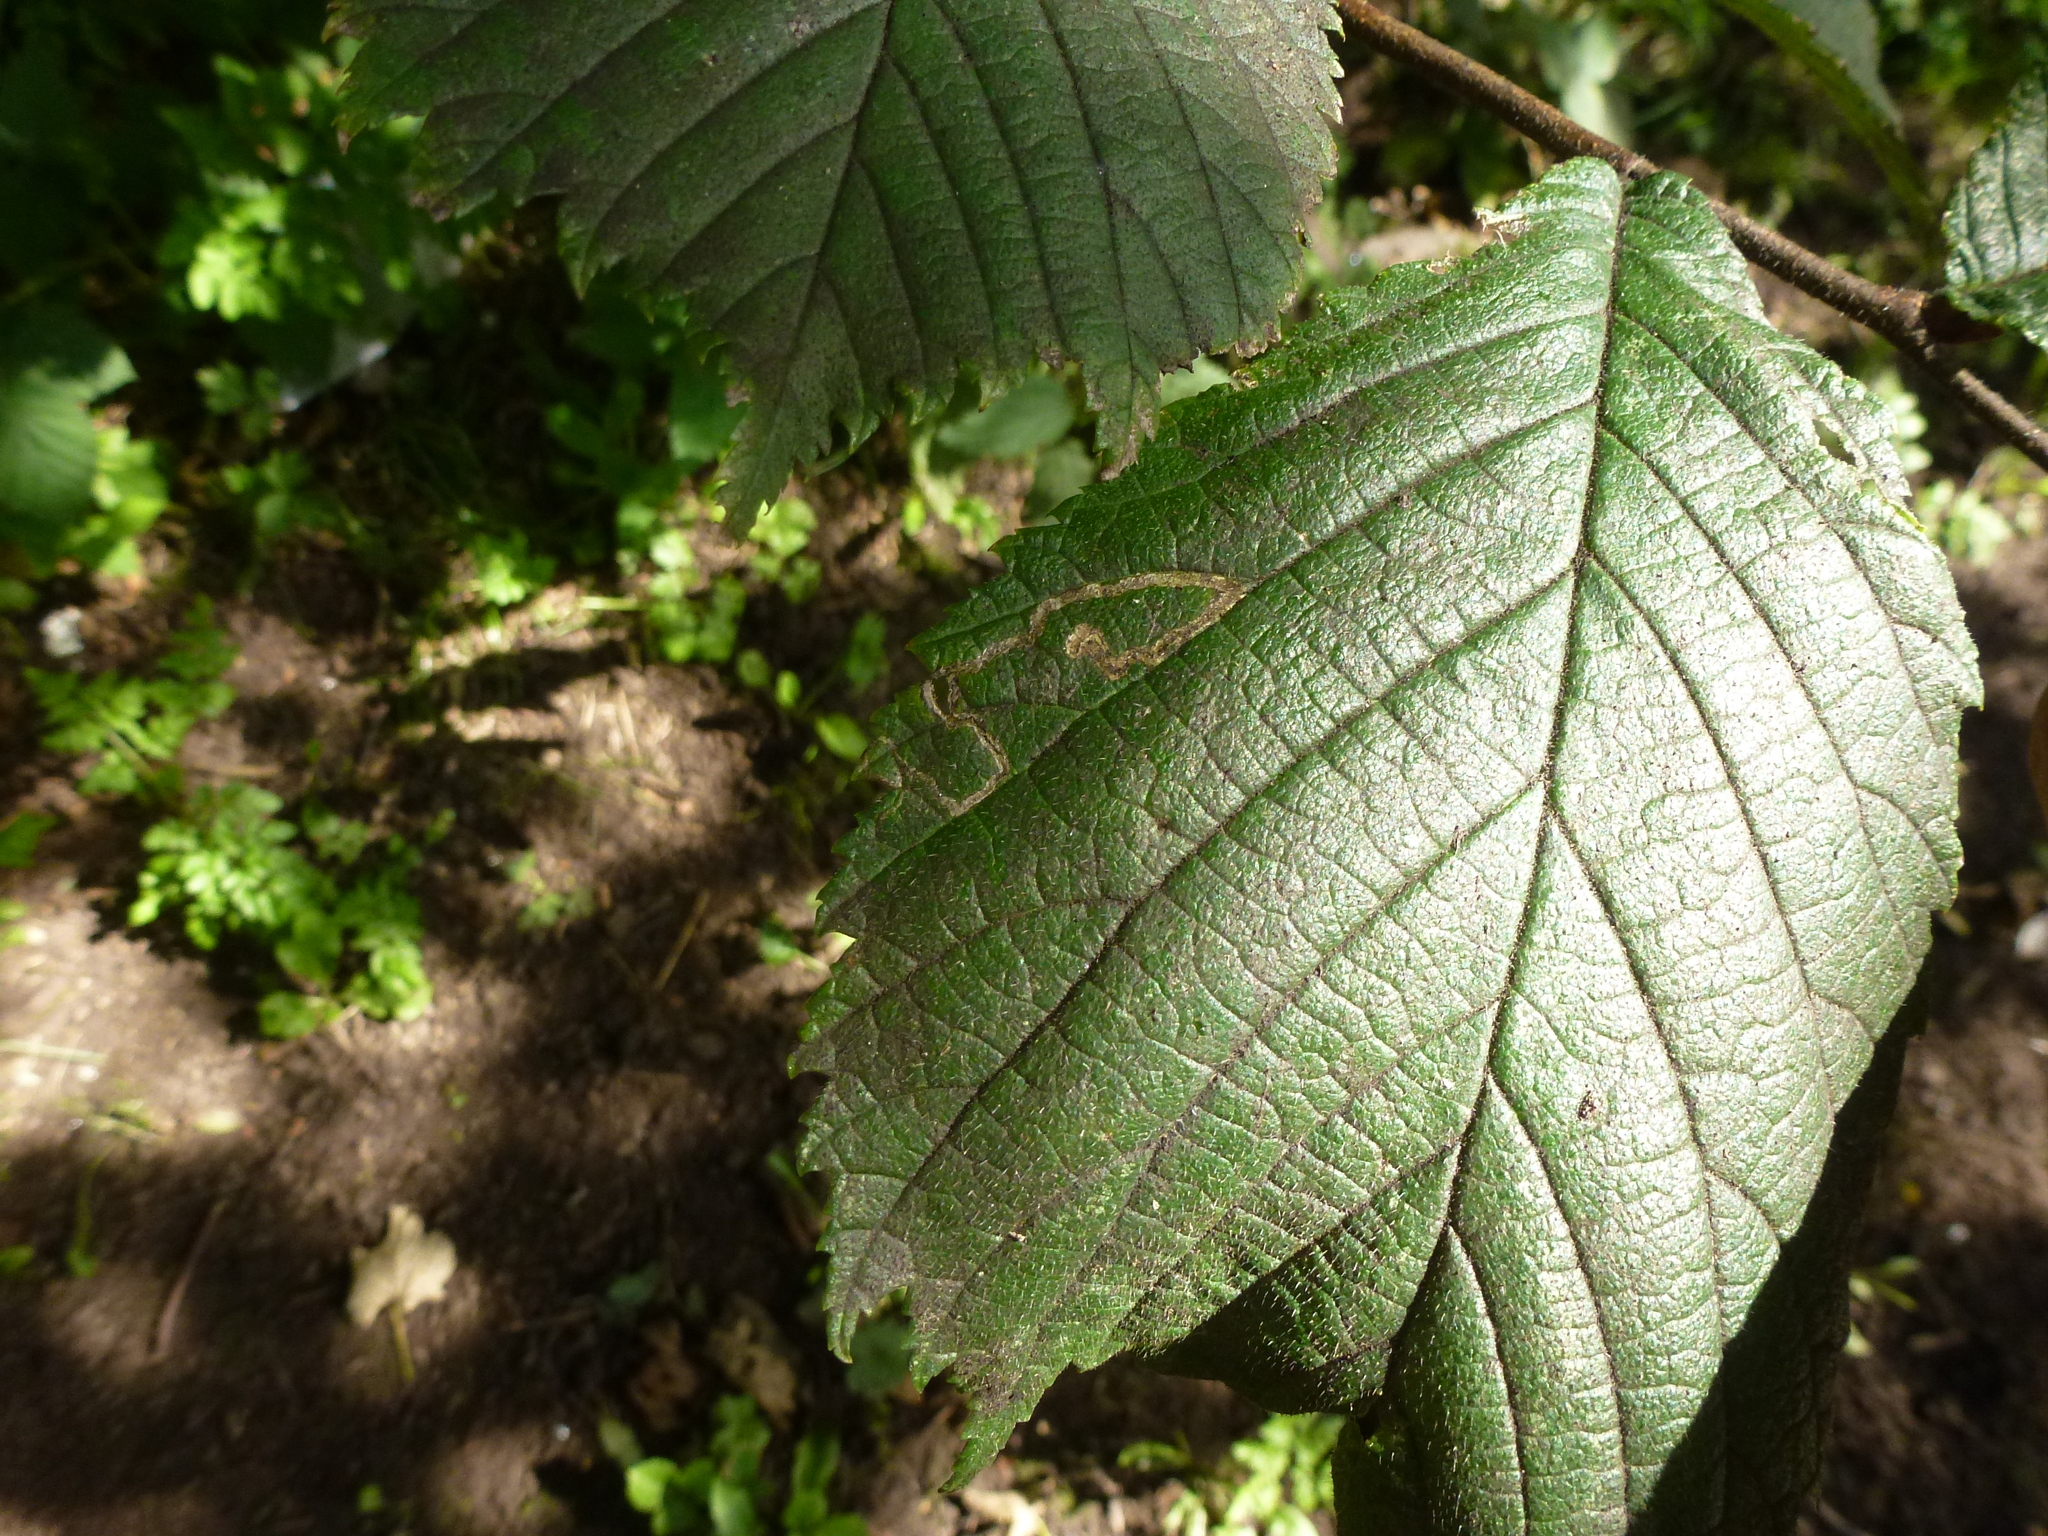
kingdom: Animalia
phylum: Arthropoda
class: Insecta
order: Lepidoptera
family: Nepticulidae
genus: Stigmella
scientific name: Stigmella ulmivora
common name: Barred elm pigmy
